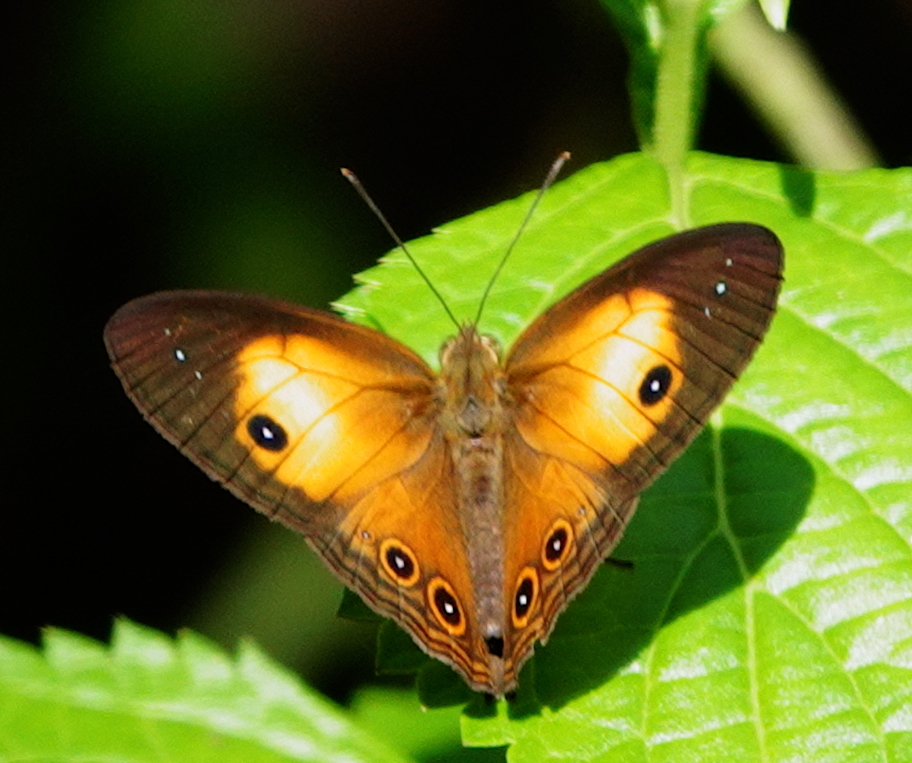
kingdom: Animalia
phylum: Arthropoda
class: Insecta
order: Lepidoptera
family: Nymphalidae
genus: Mycalesis
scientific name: Mycalesis terminus
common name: Orange bushbrown
